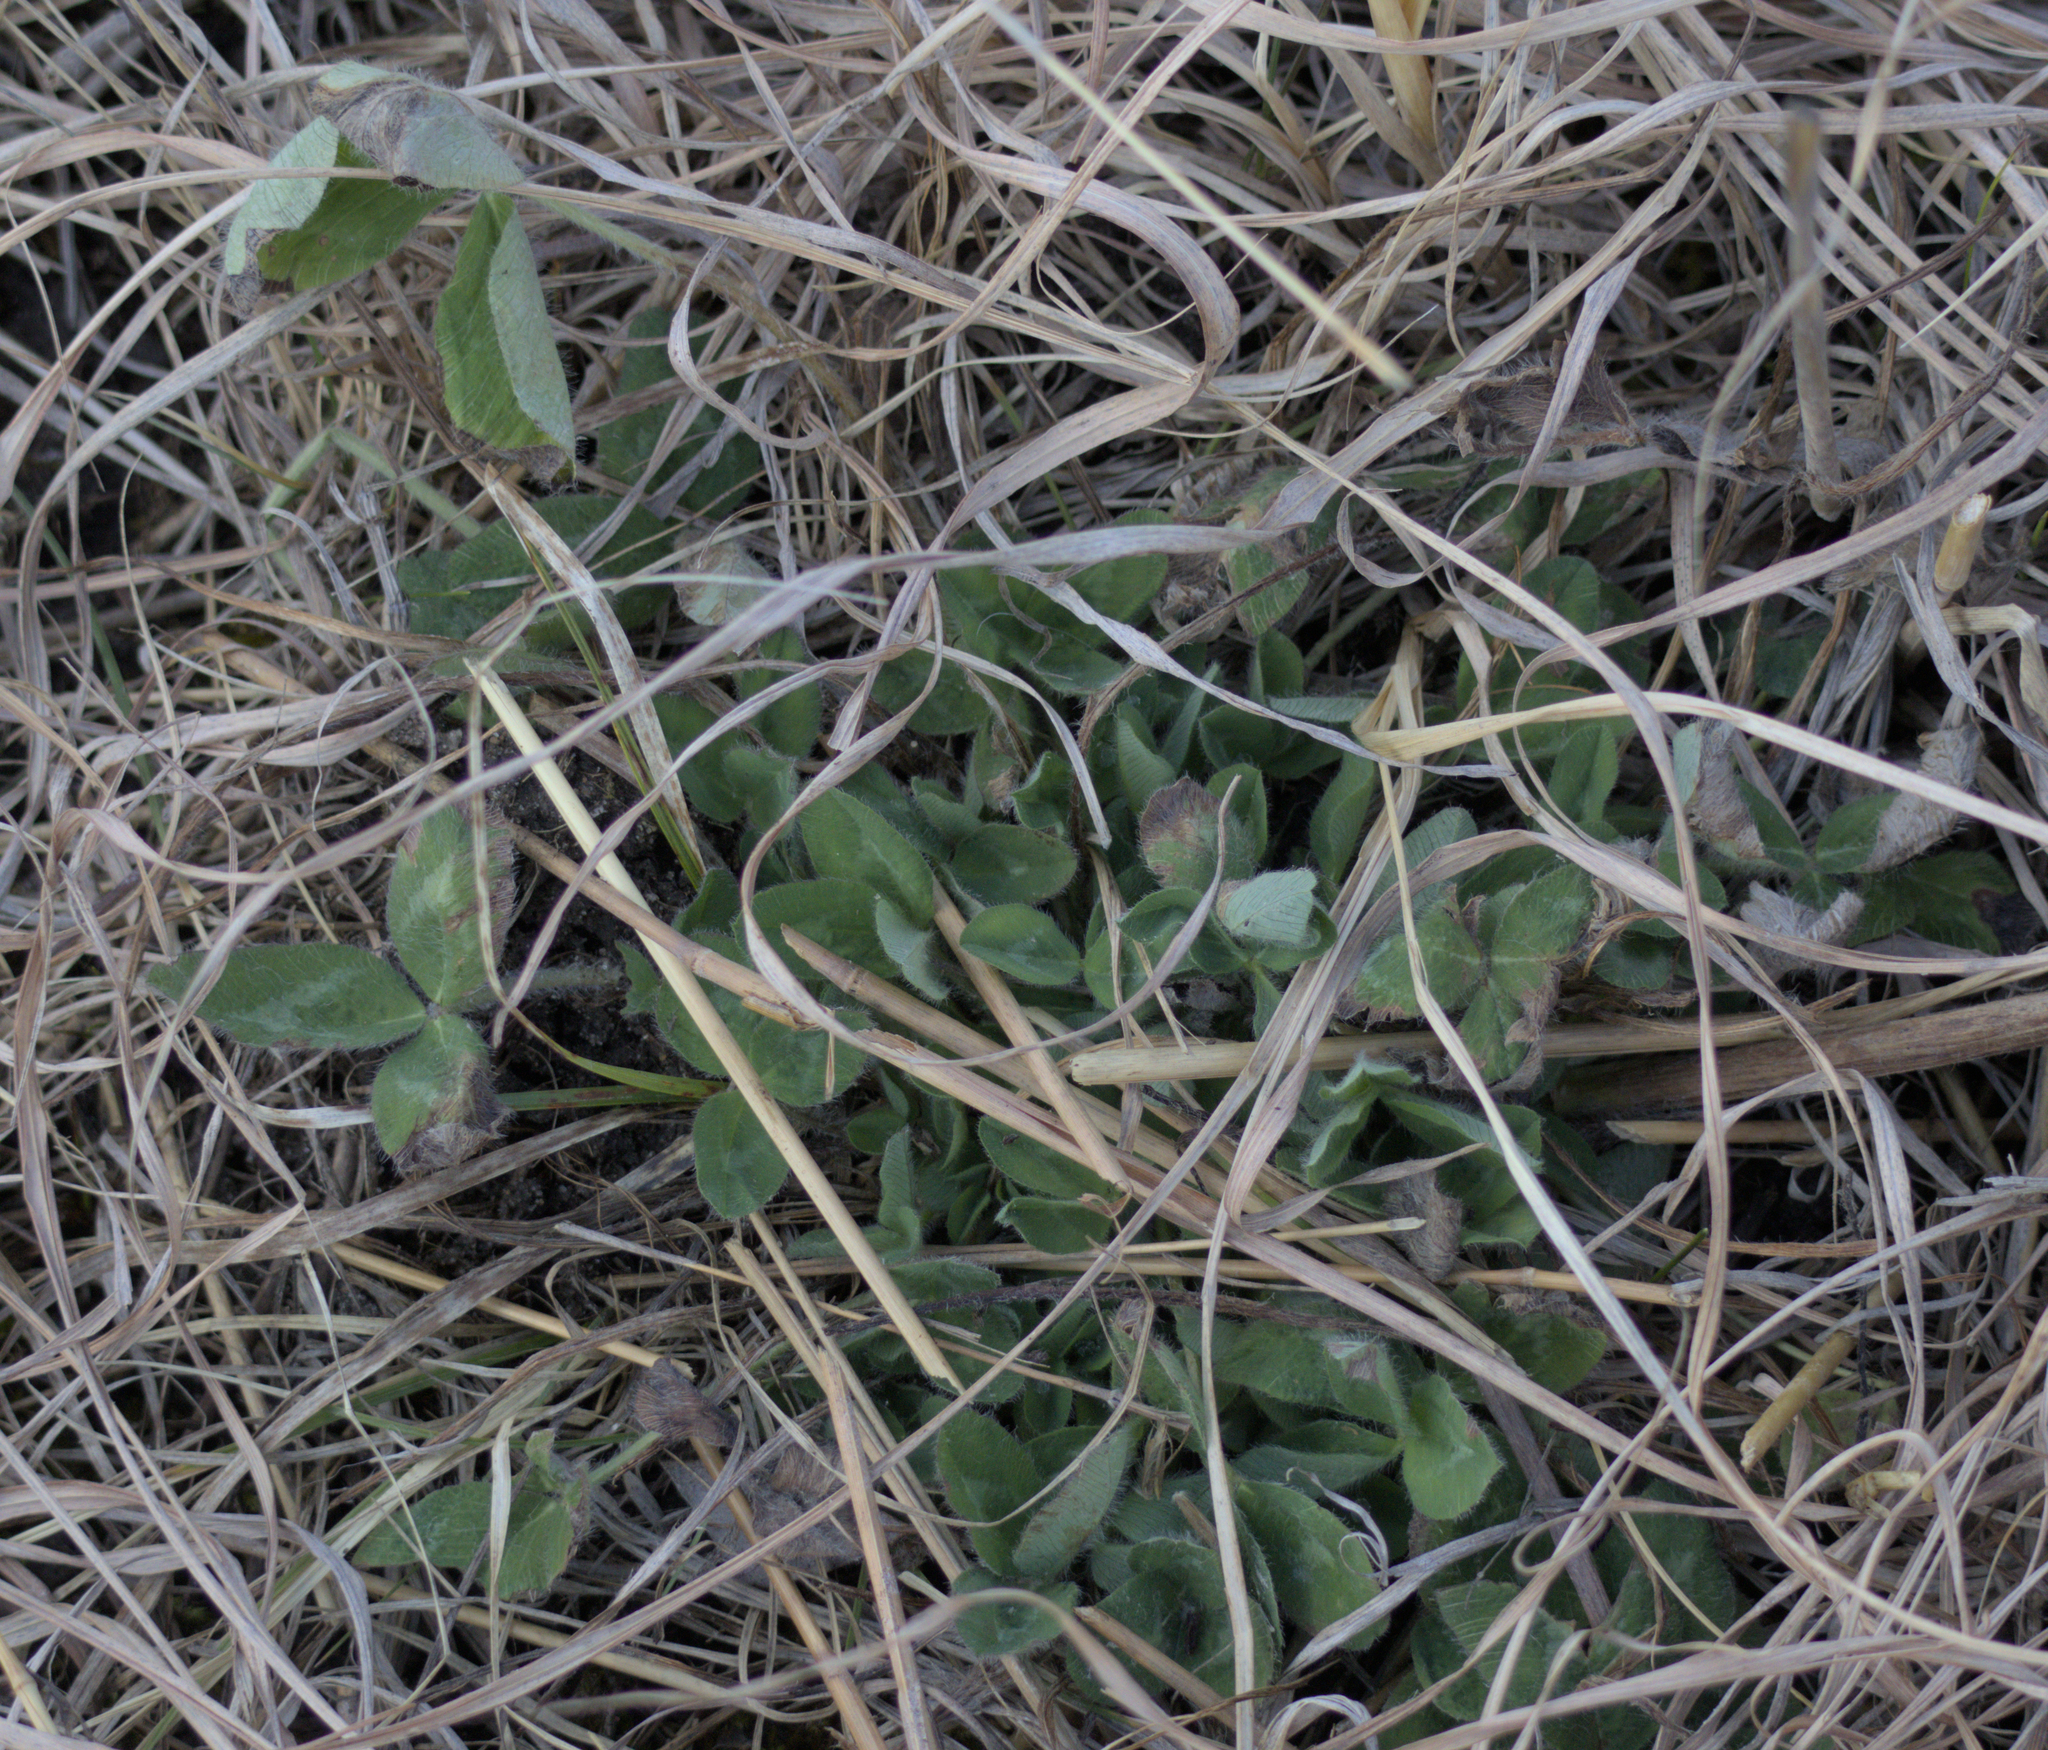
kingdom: Plantae
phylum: Tracheophyta
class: Magnoliopsida
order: Fabales
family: Fabaceae
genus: Trifolium
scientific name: Trifolium pratense
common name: Red clover
